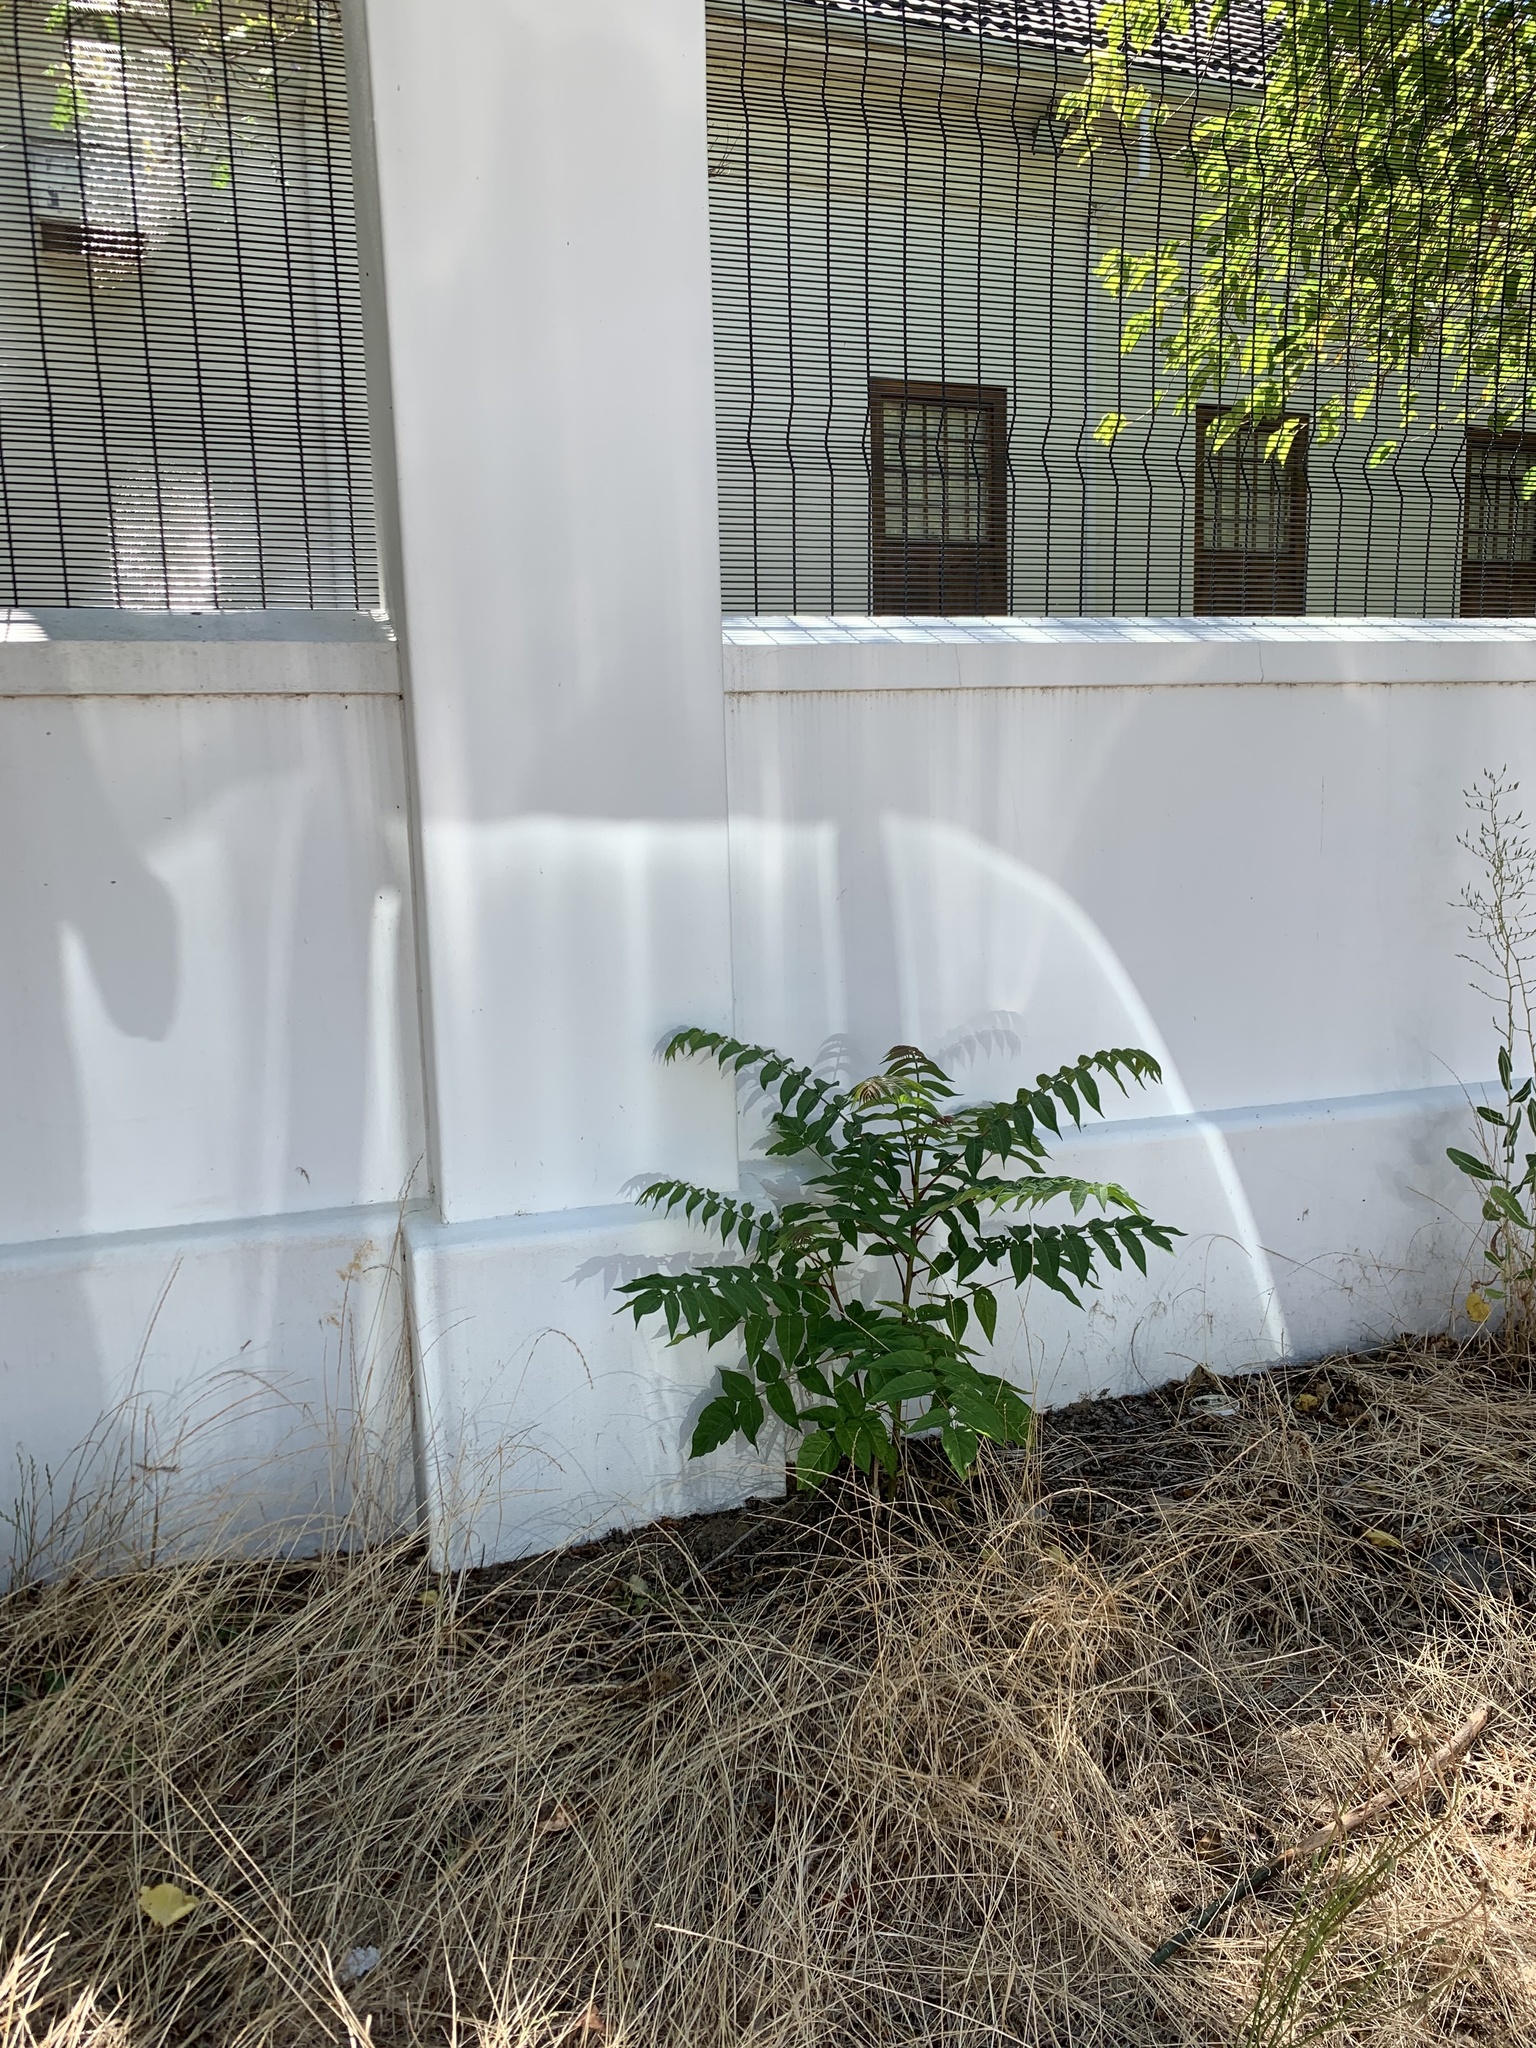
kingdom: Plantae
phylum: Tracheophyta
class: Magnoliopsida
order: Sapindales
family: Simaroubaceae
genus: Ailanthus
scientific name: Ailanthus altissima
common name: Tree-of-heaven
